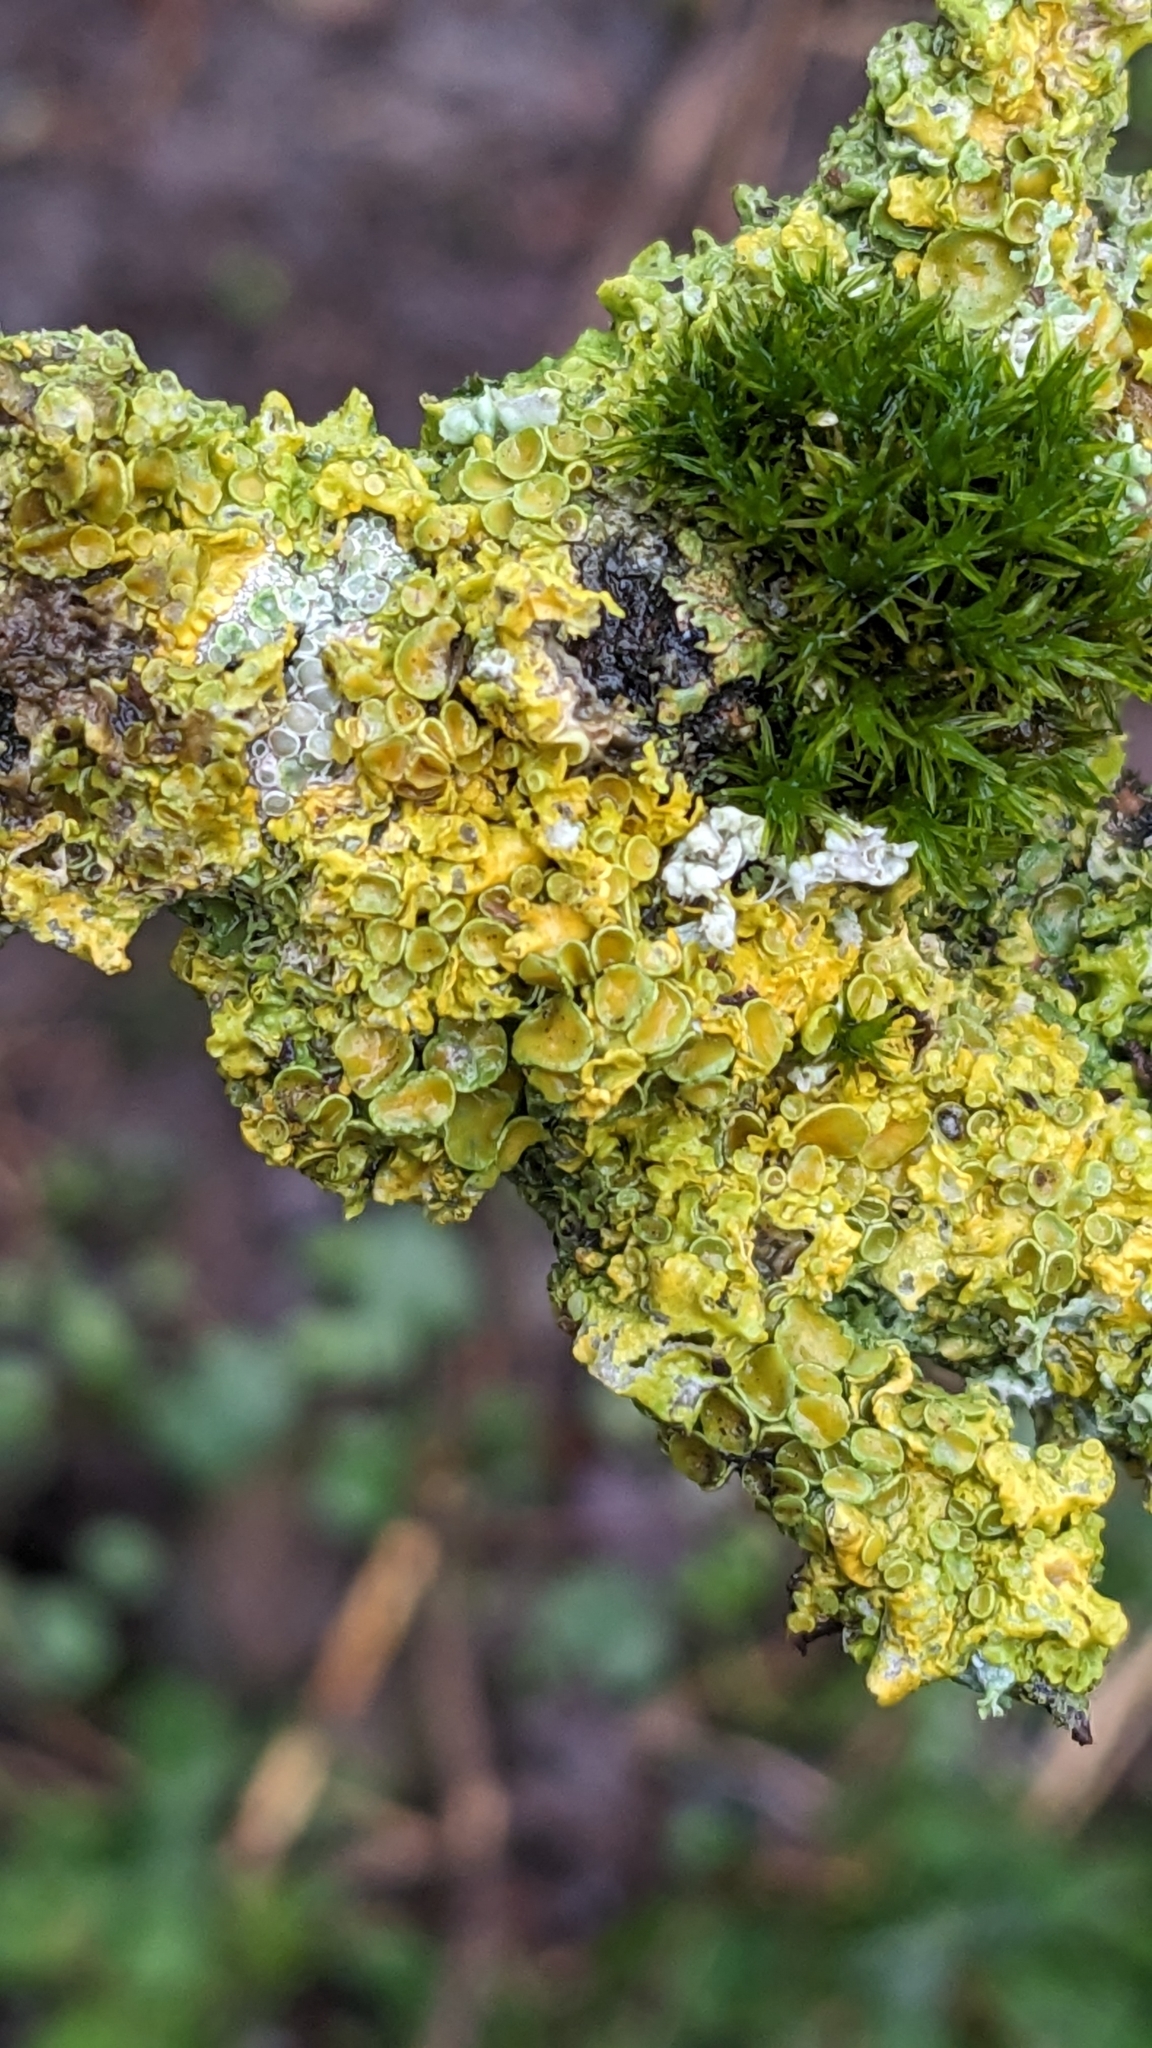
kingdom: Fungi
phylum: Ascomycota
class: Lecanoromycetes
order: Teloschistales
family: Teloschistaceae
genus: Xanthoria
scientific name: Xanthoria parietina
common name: Common orange lichen
